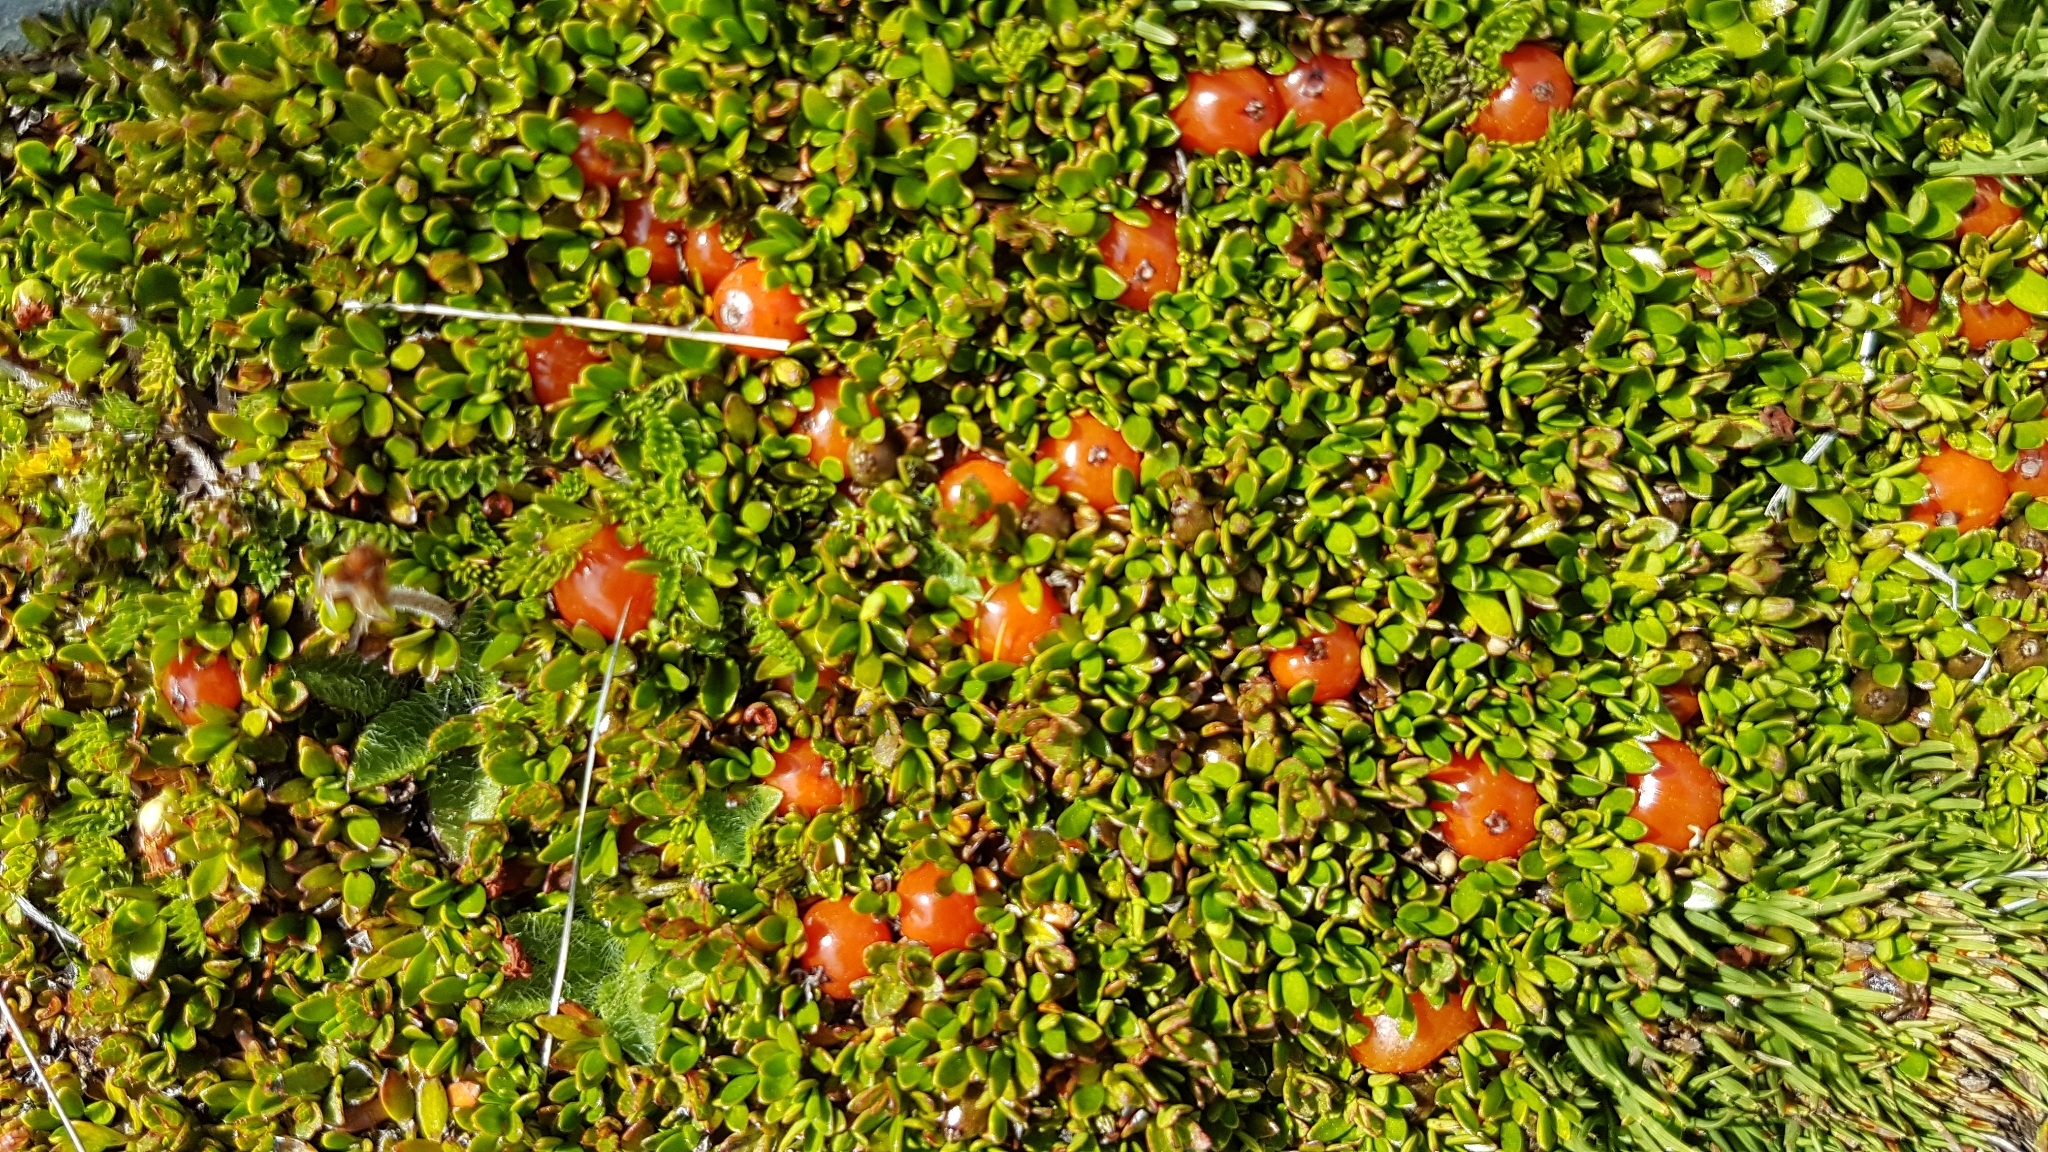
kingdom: Plantae
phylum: Tracheophyta
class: Magnoliopsida
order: Gentianales
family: Rubiaceae
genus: Coprosma
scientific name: Coprosma perpusilla
